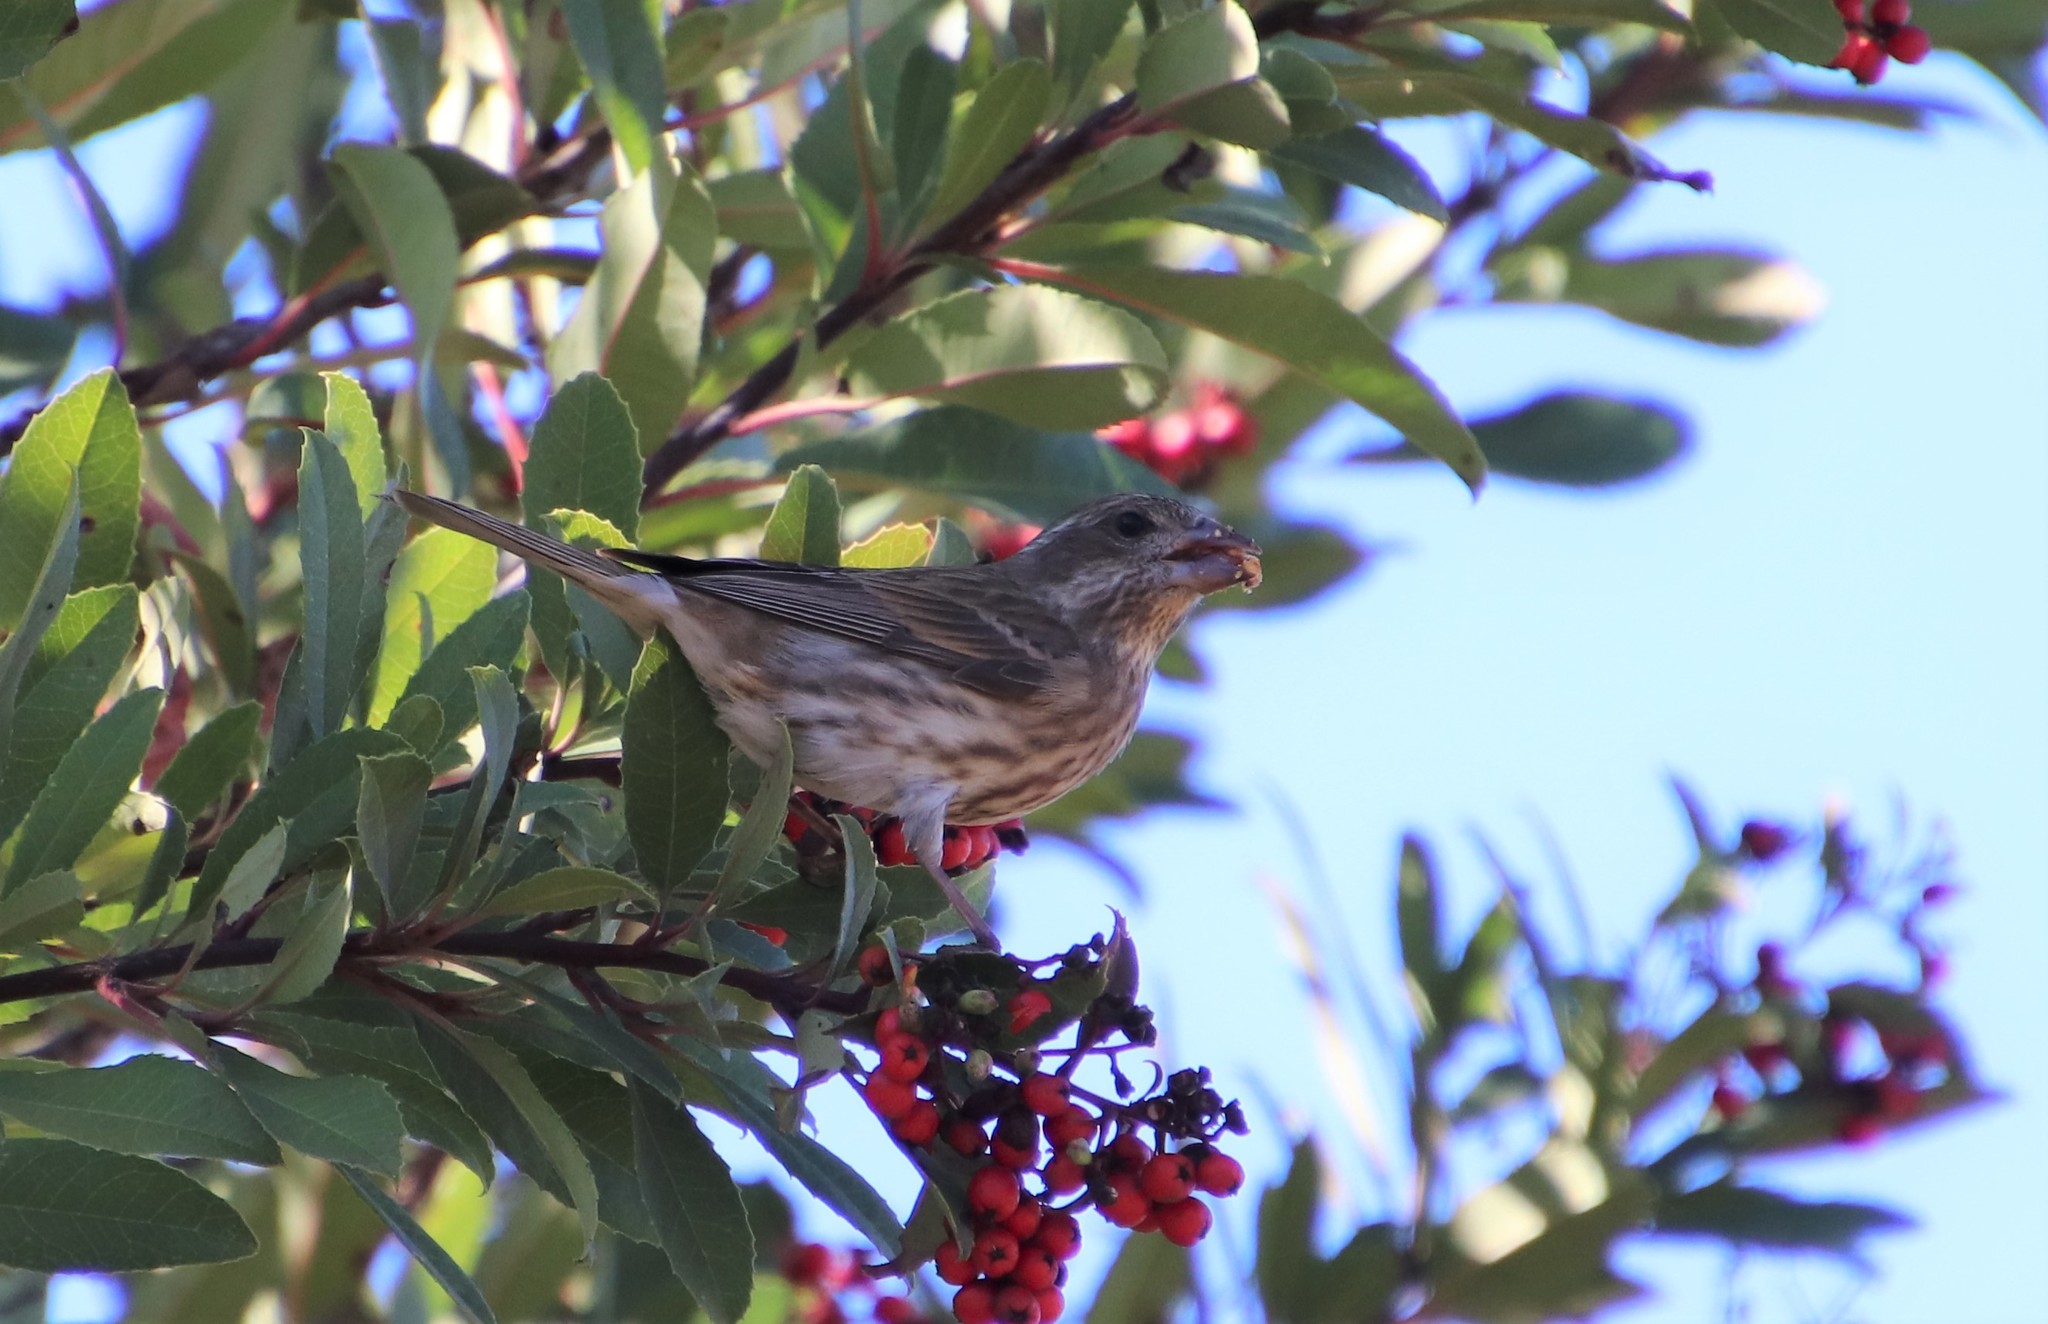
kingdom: Animalia
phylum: Chordata
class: Aves
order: Passeriformes
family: Fringillidae
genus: Haemorhous
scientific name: Haemorhous purpureus
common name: Purple finch
